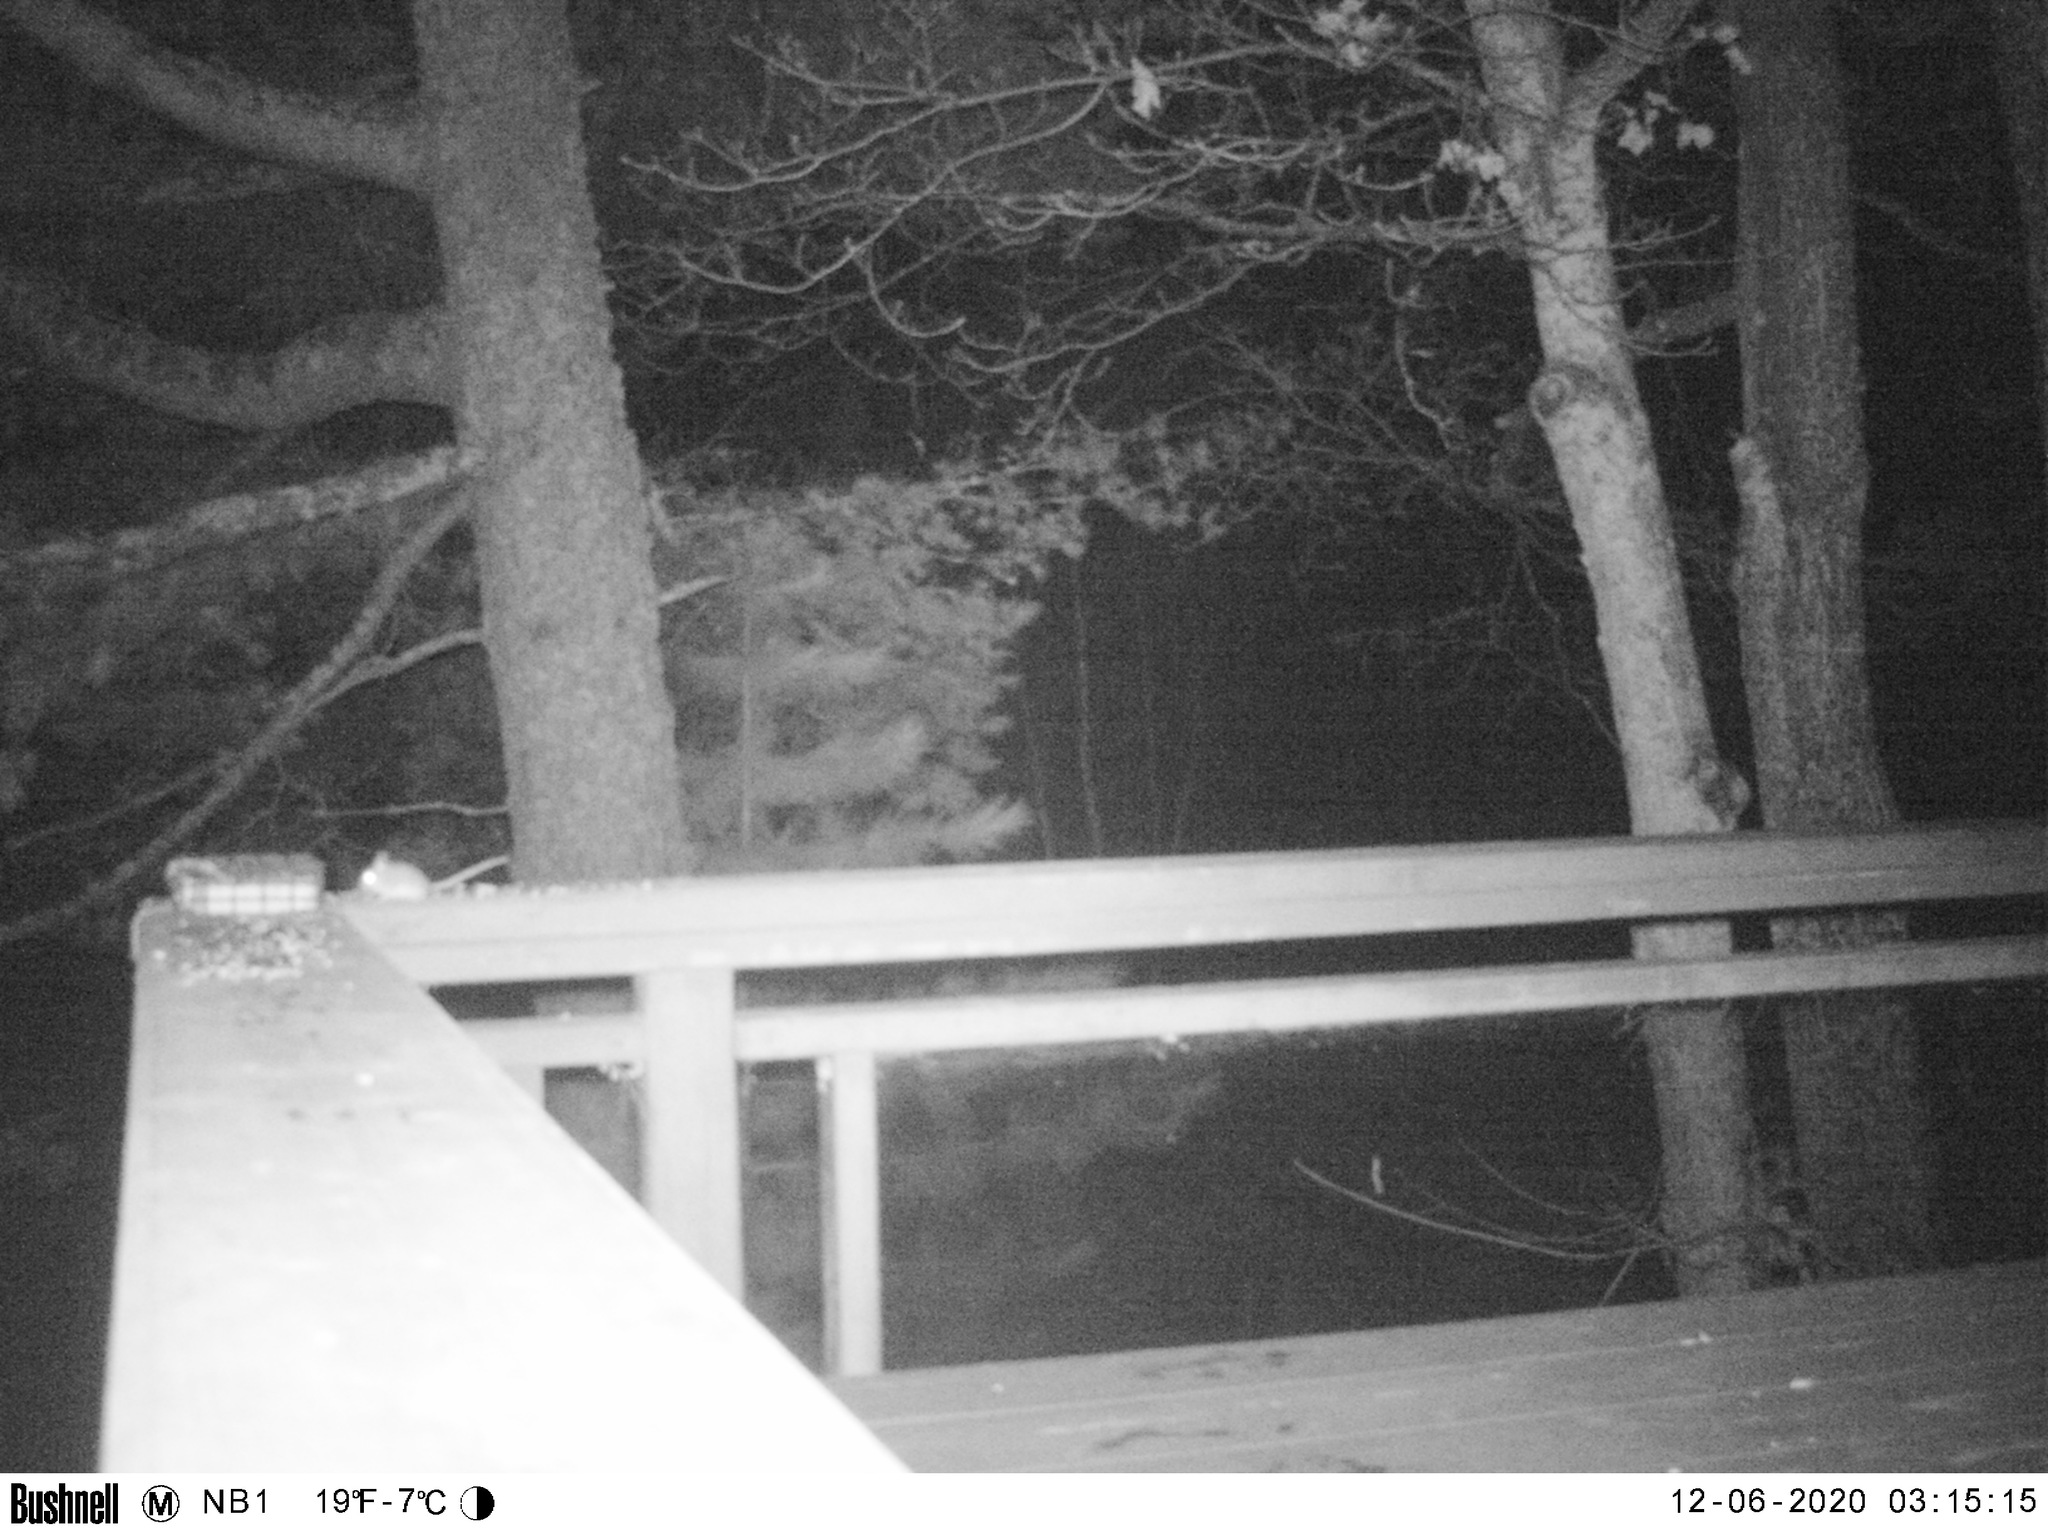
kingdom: Animalia
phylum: Chordata
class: Mammalia
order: Rodentia
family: Cricetidae
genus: Peromyscus
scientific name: Peromyscus maniculatus
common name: Deer mouse
